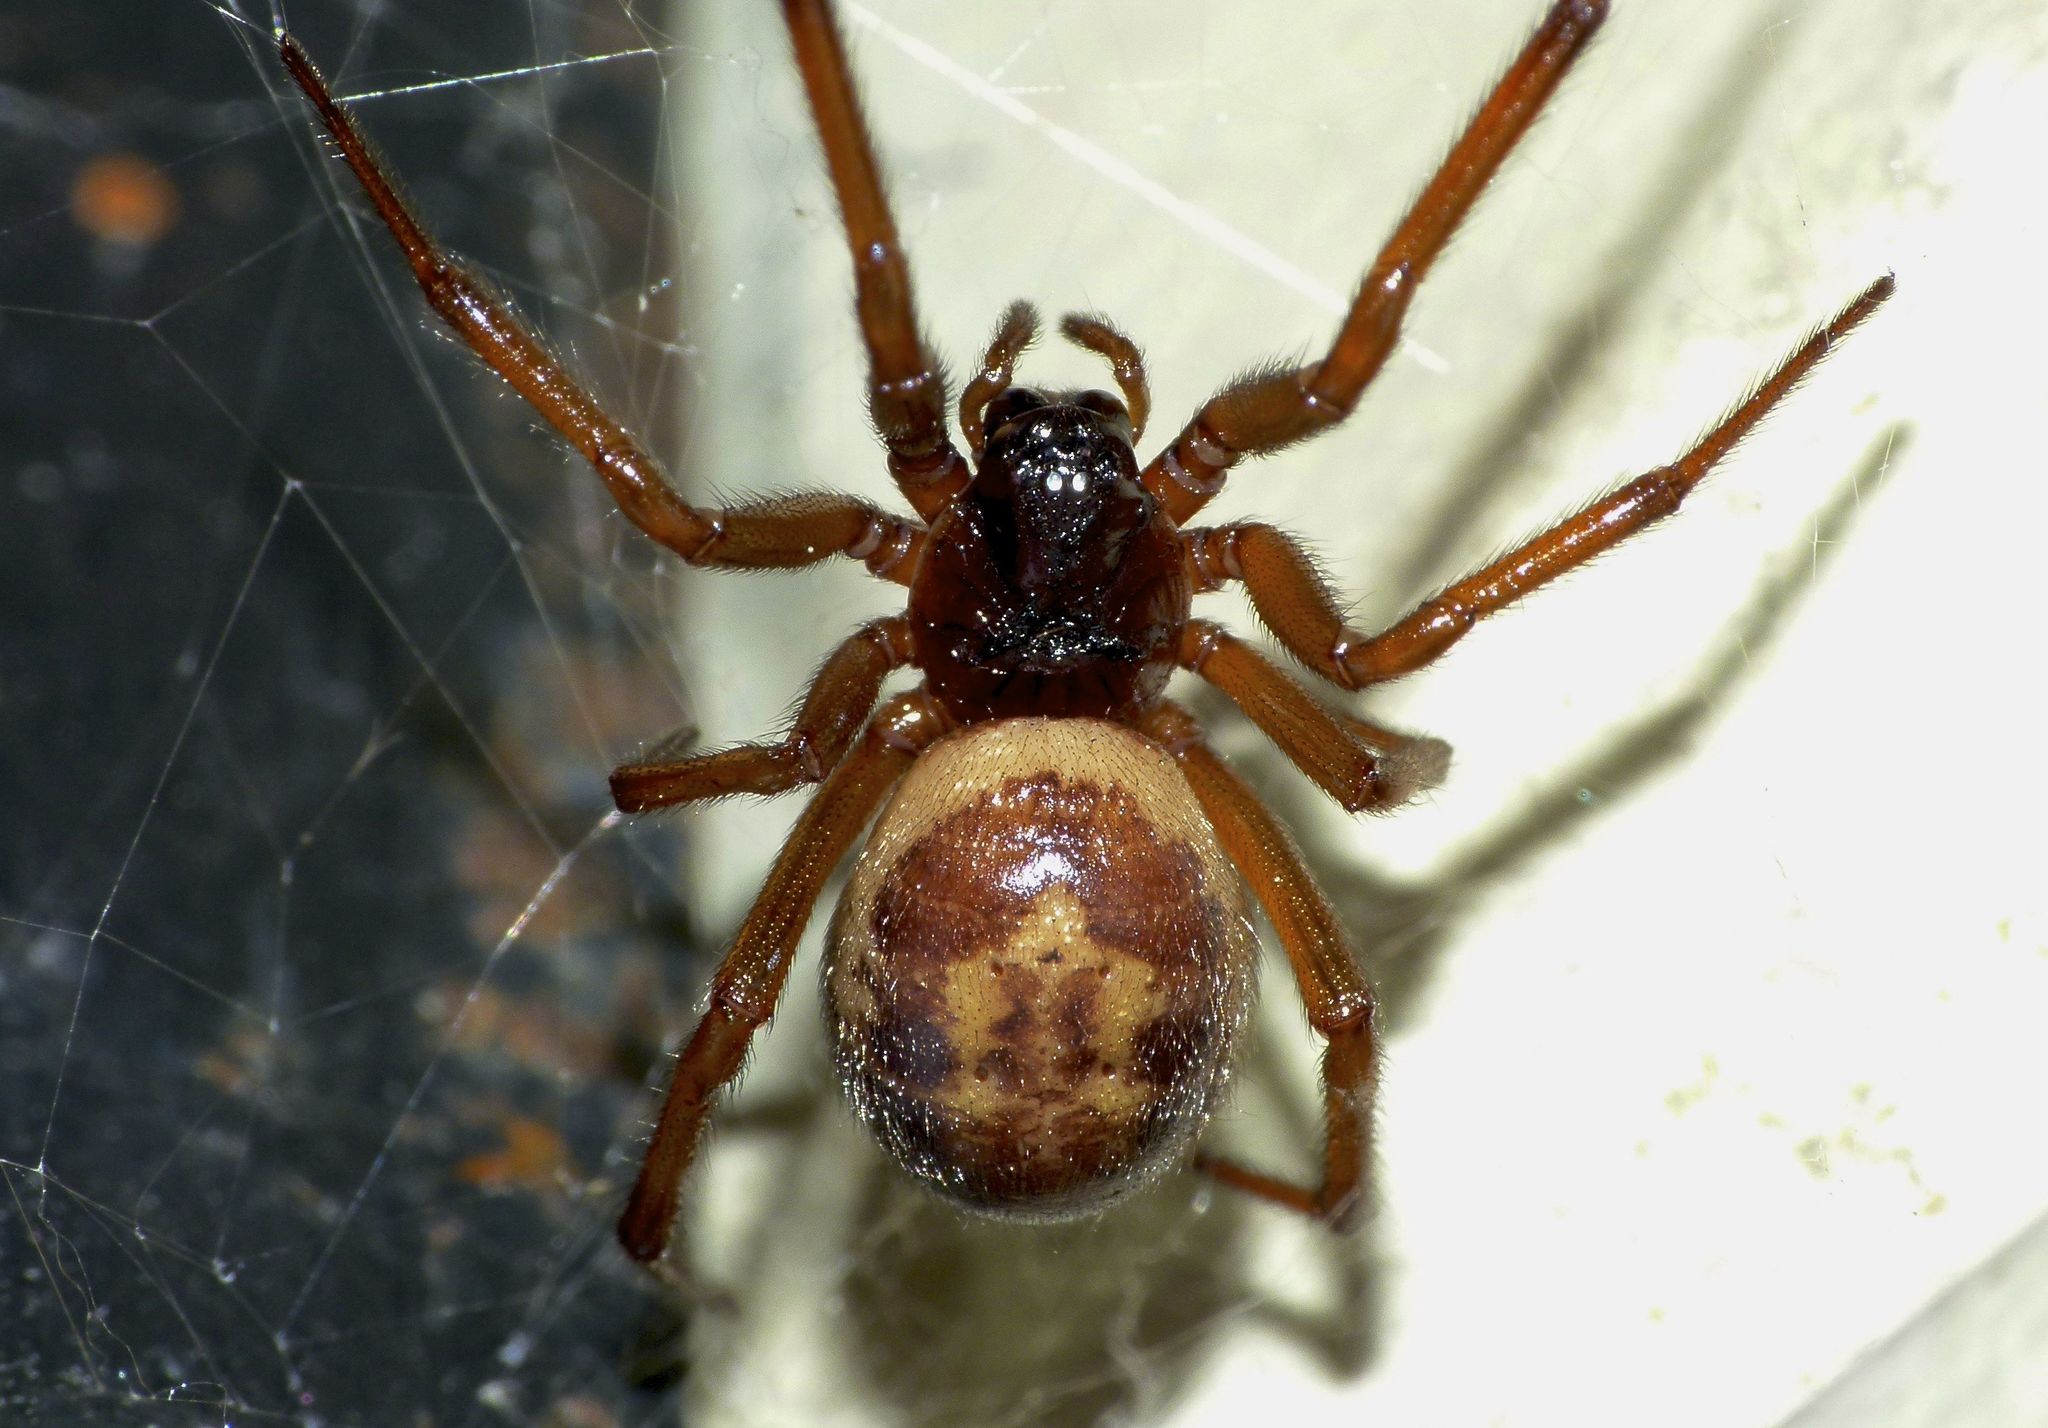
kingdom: Animalia
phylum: Arthropoda
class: Arachnida
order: Araneae
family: Theridiidae
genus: Steatoda
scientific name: Steatoda nobilis
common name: Cobweb weaver
